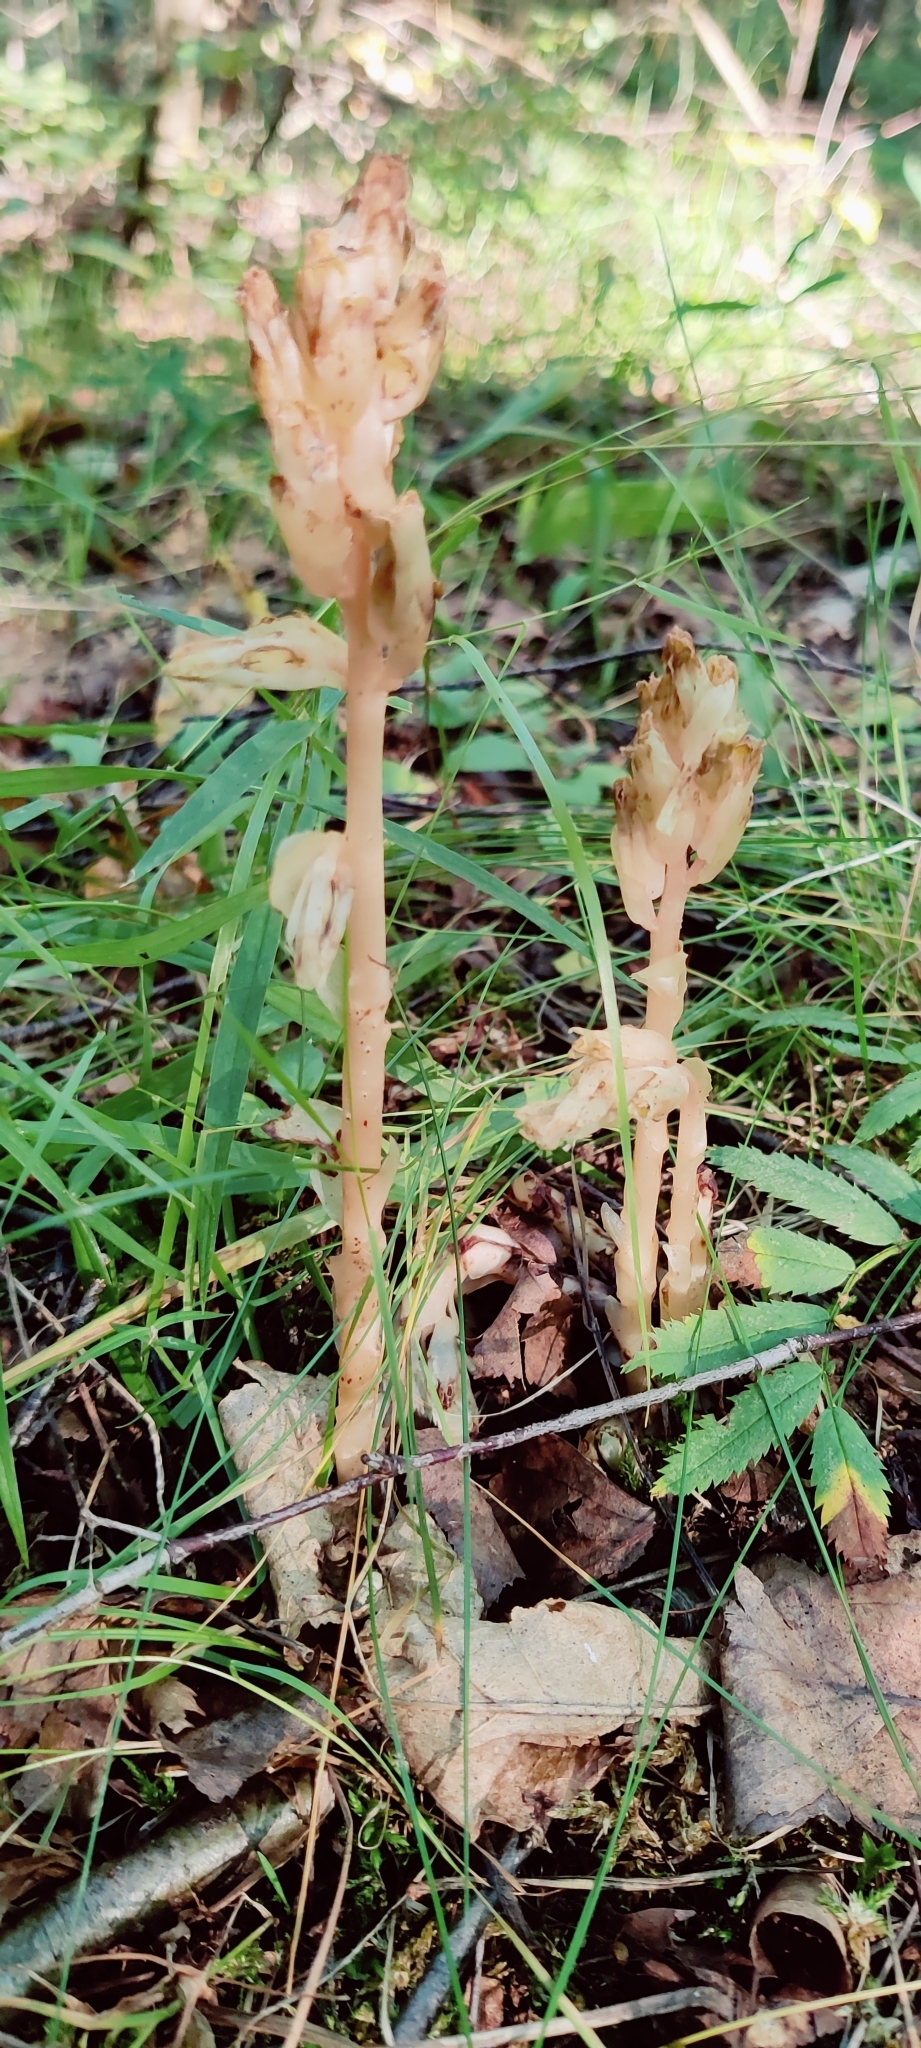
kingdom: Plantae
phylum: Tracheophyta
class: Magnoliopsida
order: Ericales
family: Ericaceae
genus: Hypopitys
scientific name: Hypopitys monotropa
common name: Yellow bird's-nest
